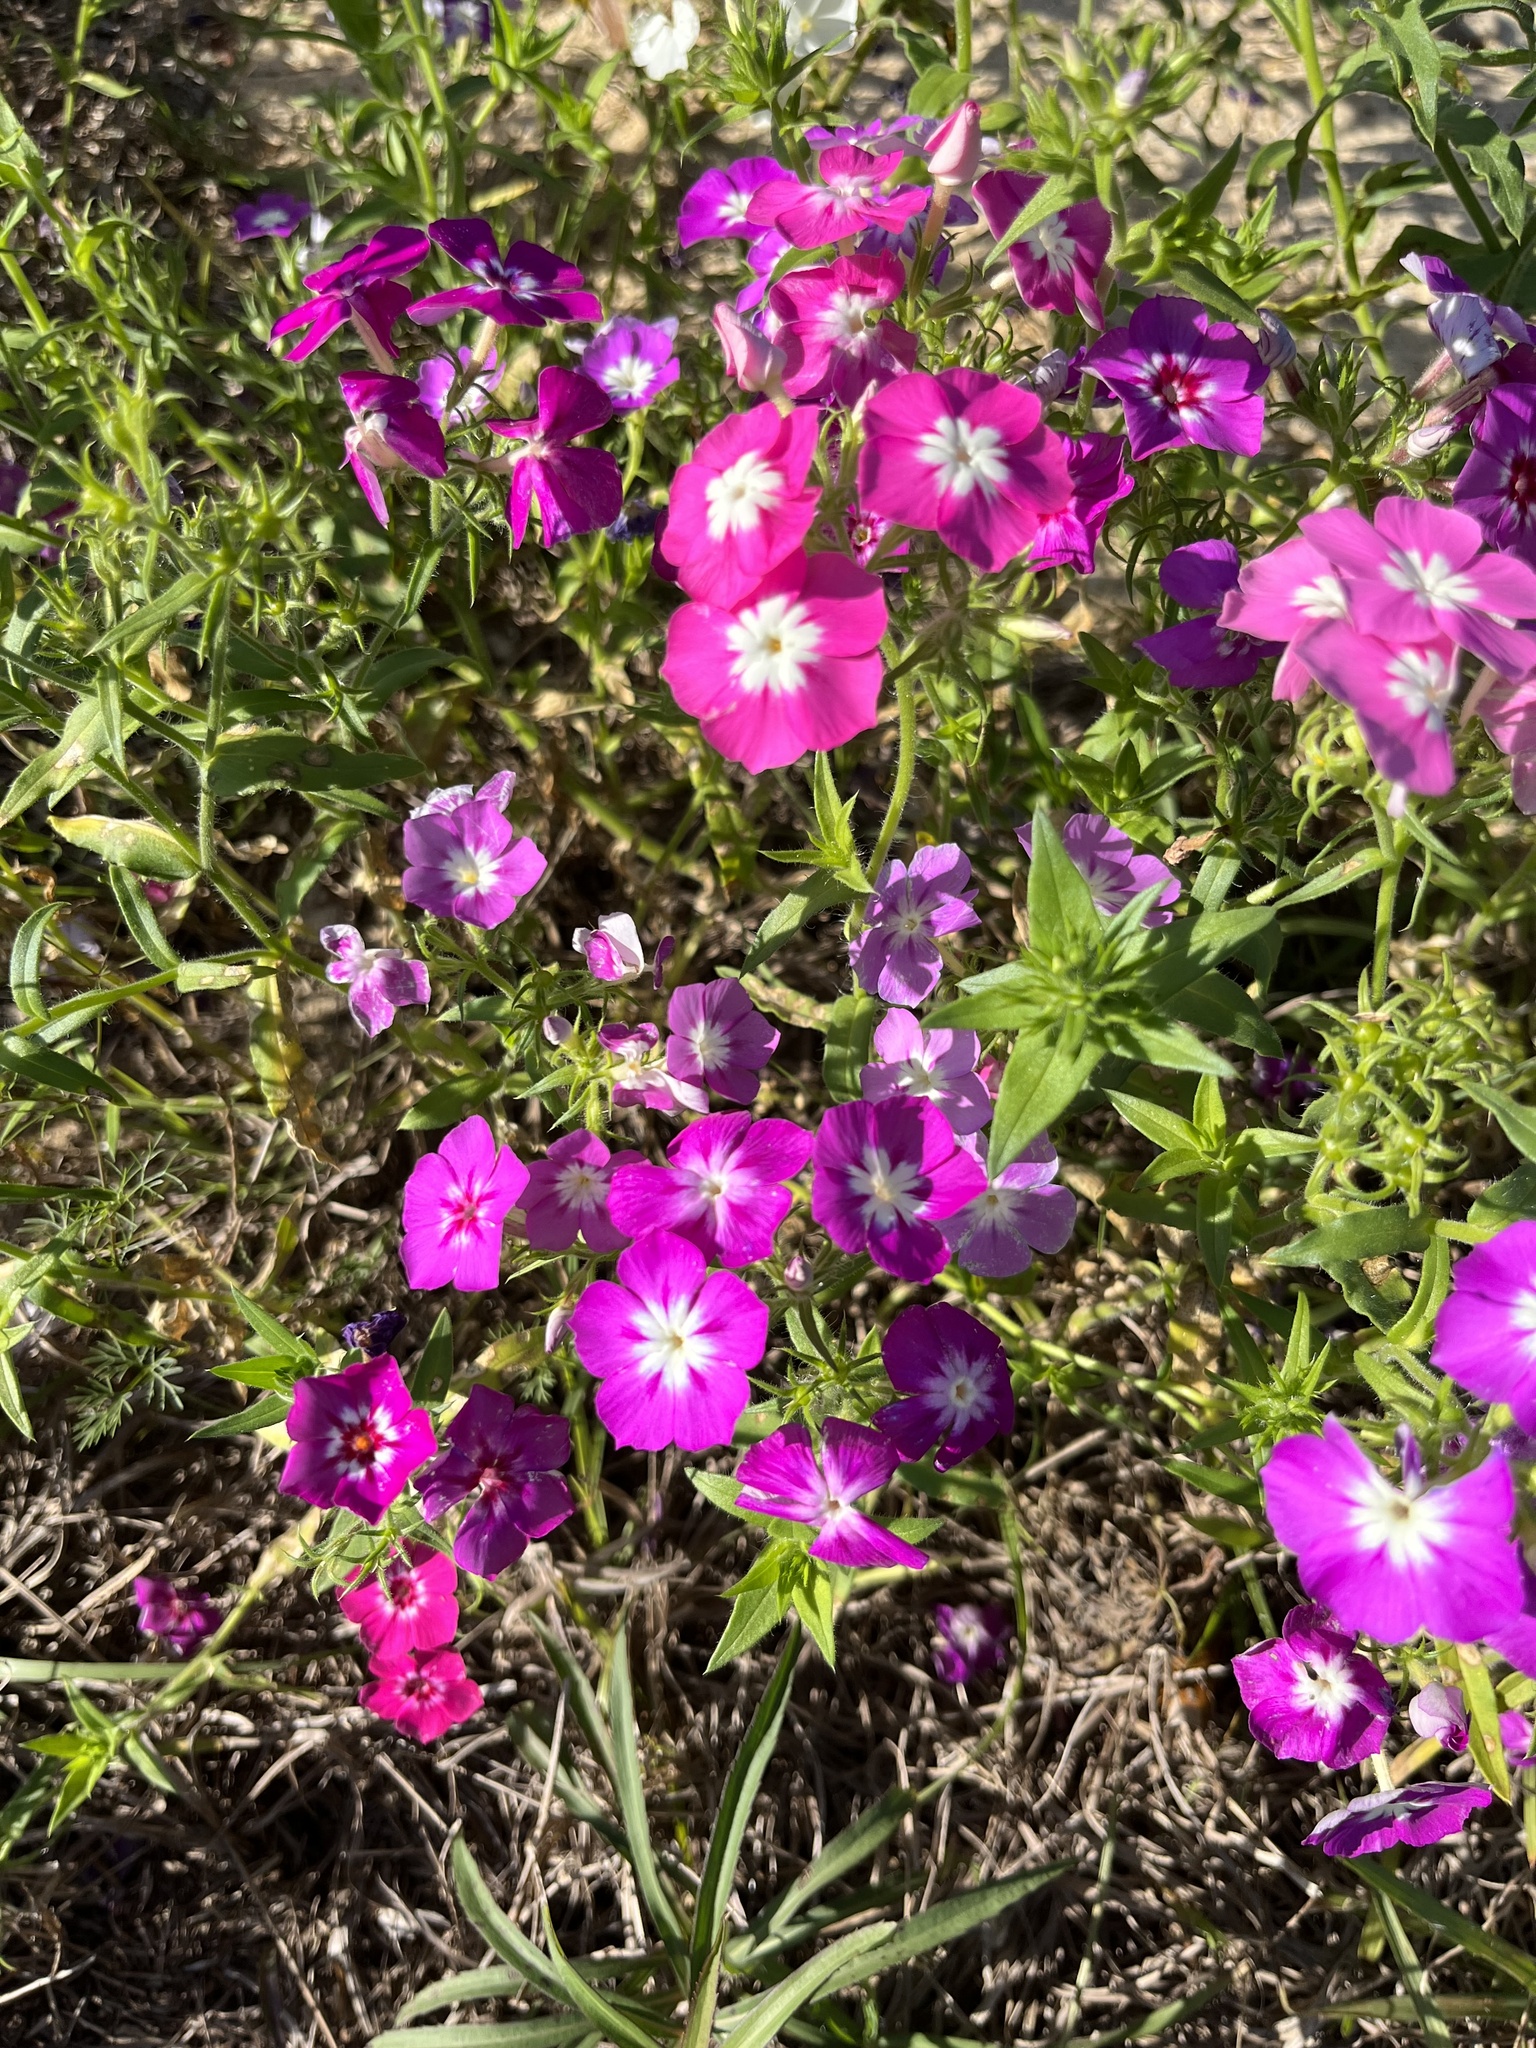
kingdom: Plantae
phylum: Tracheophyta
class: Magnoliopsida
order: Ericales
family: Polemoniaceae
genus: Phlox
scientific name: Phlox drummondii
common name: Drummond's phlox
